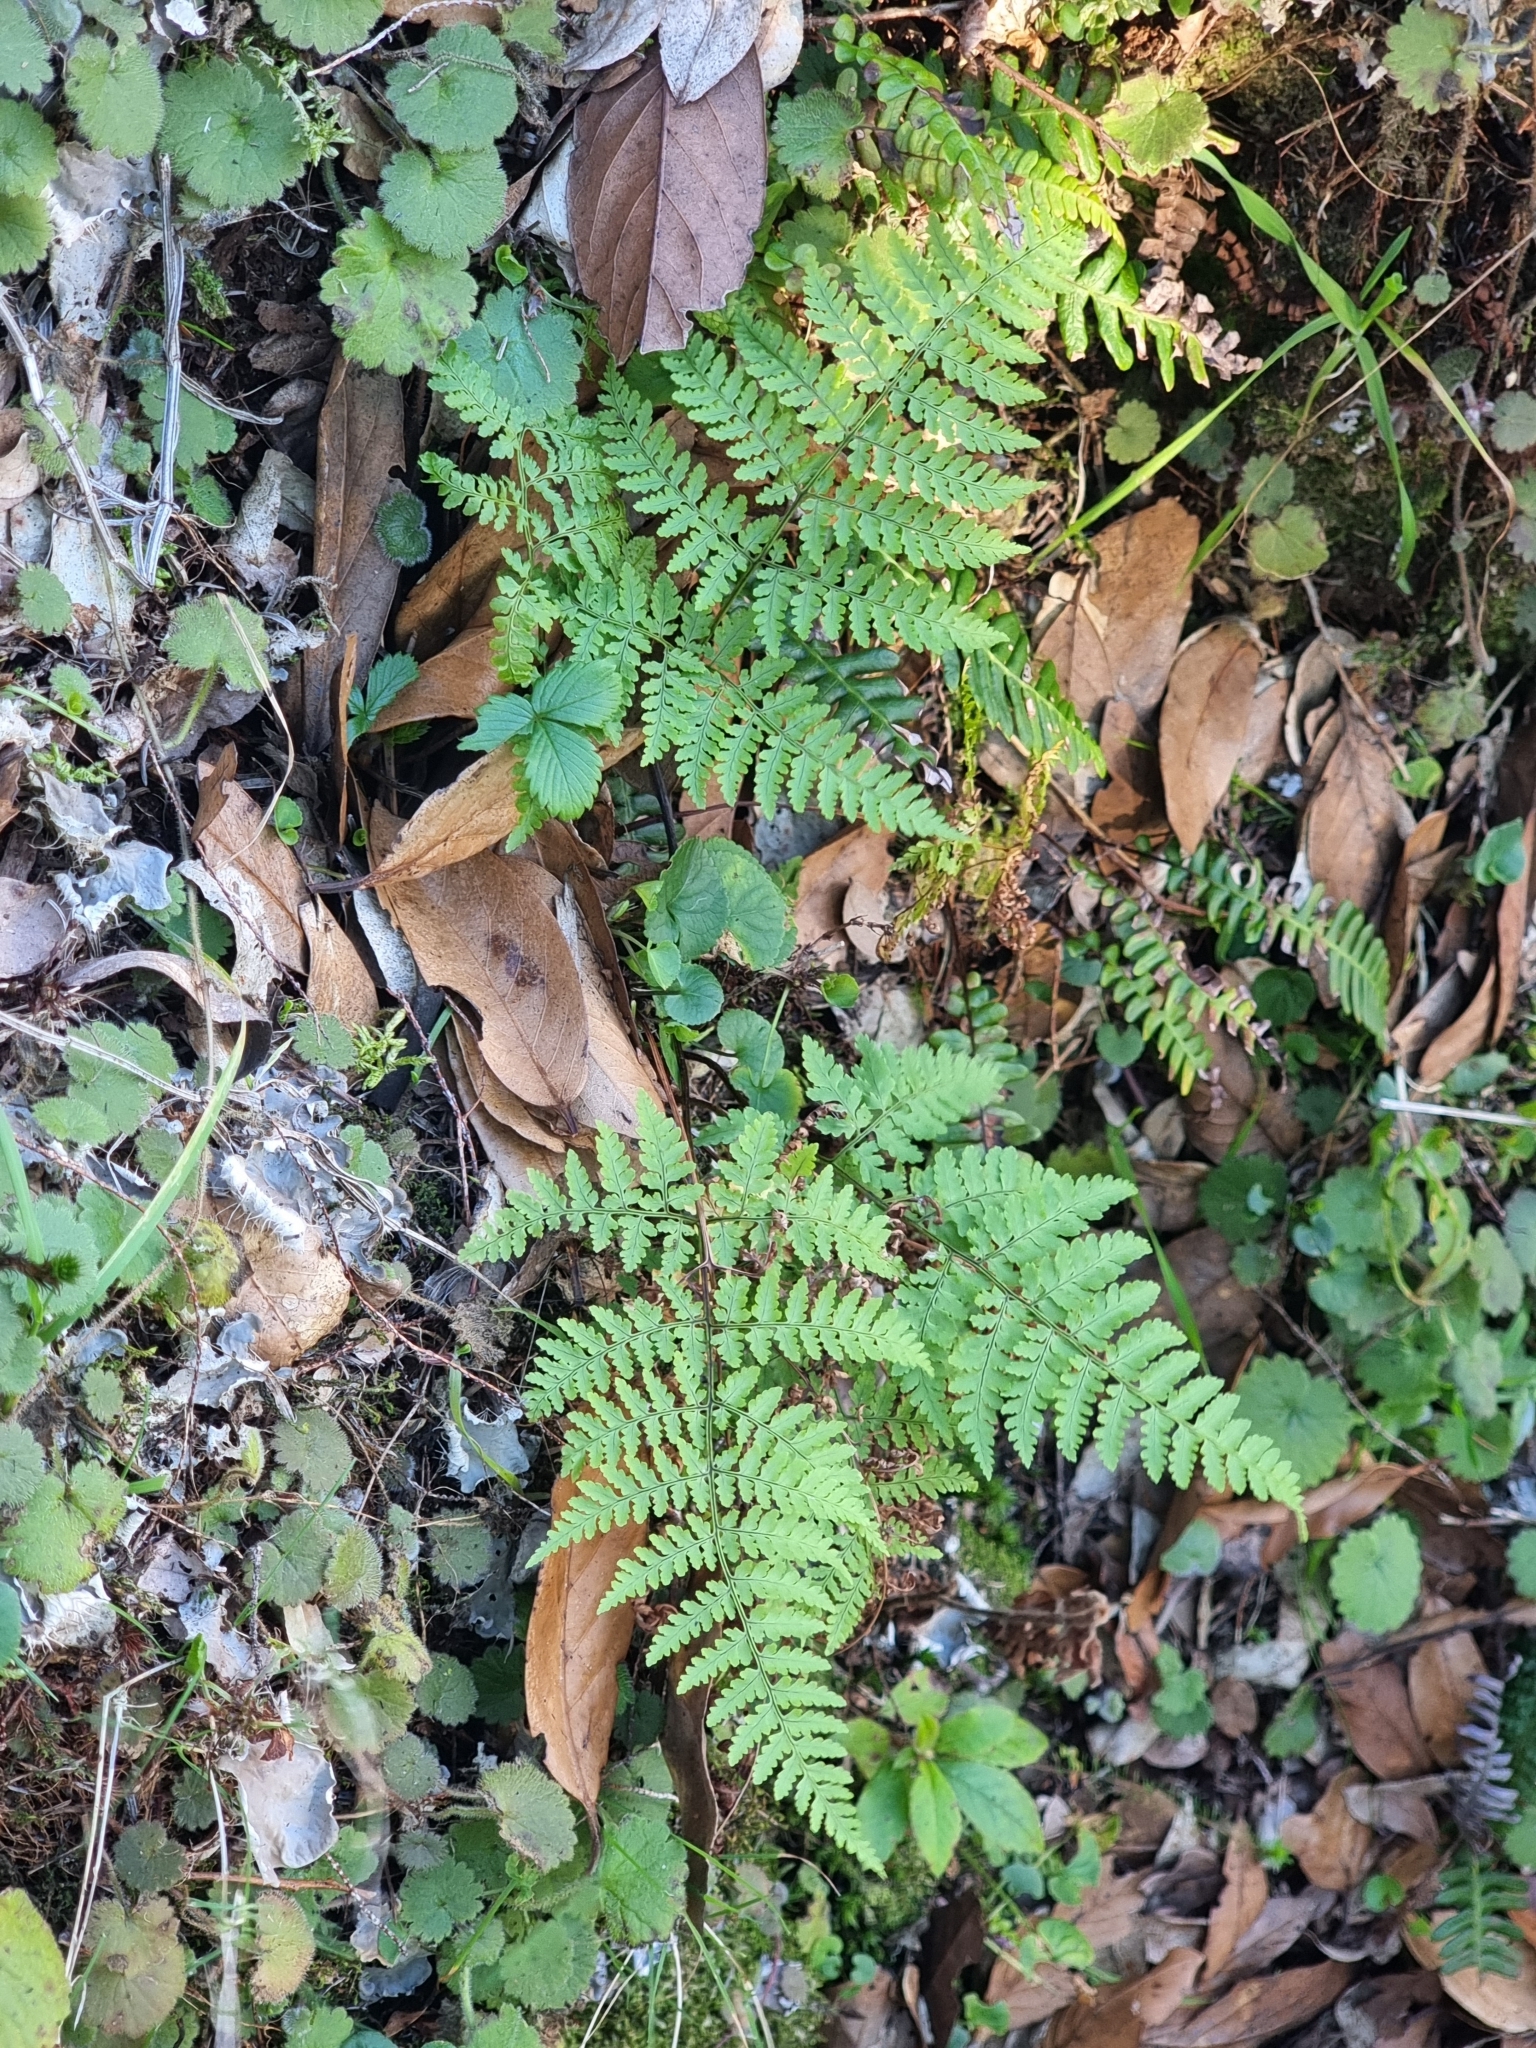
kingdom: Plantae
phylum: Tracheophyta
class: Polypodiopsida
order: Polypodiales
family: Dryopteridaceae
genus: Dryopteris
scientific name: Dryopteris aemula
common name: Hay-scented buckler-fern
